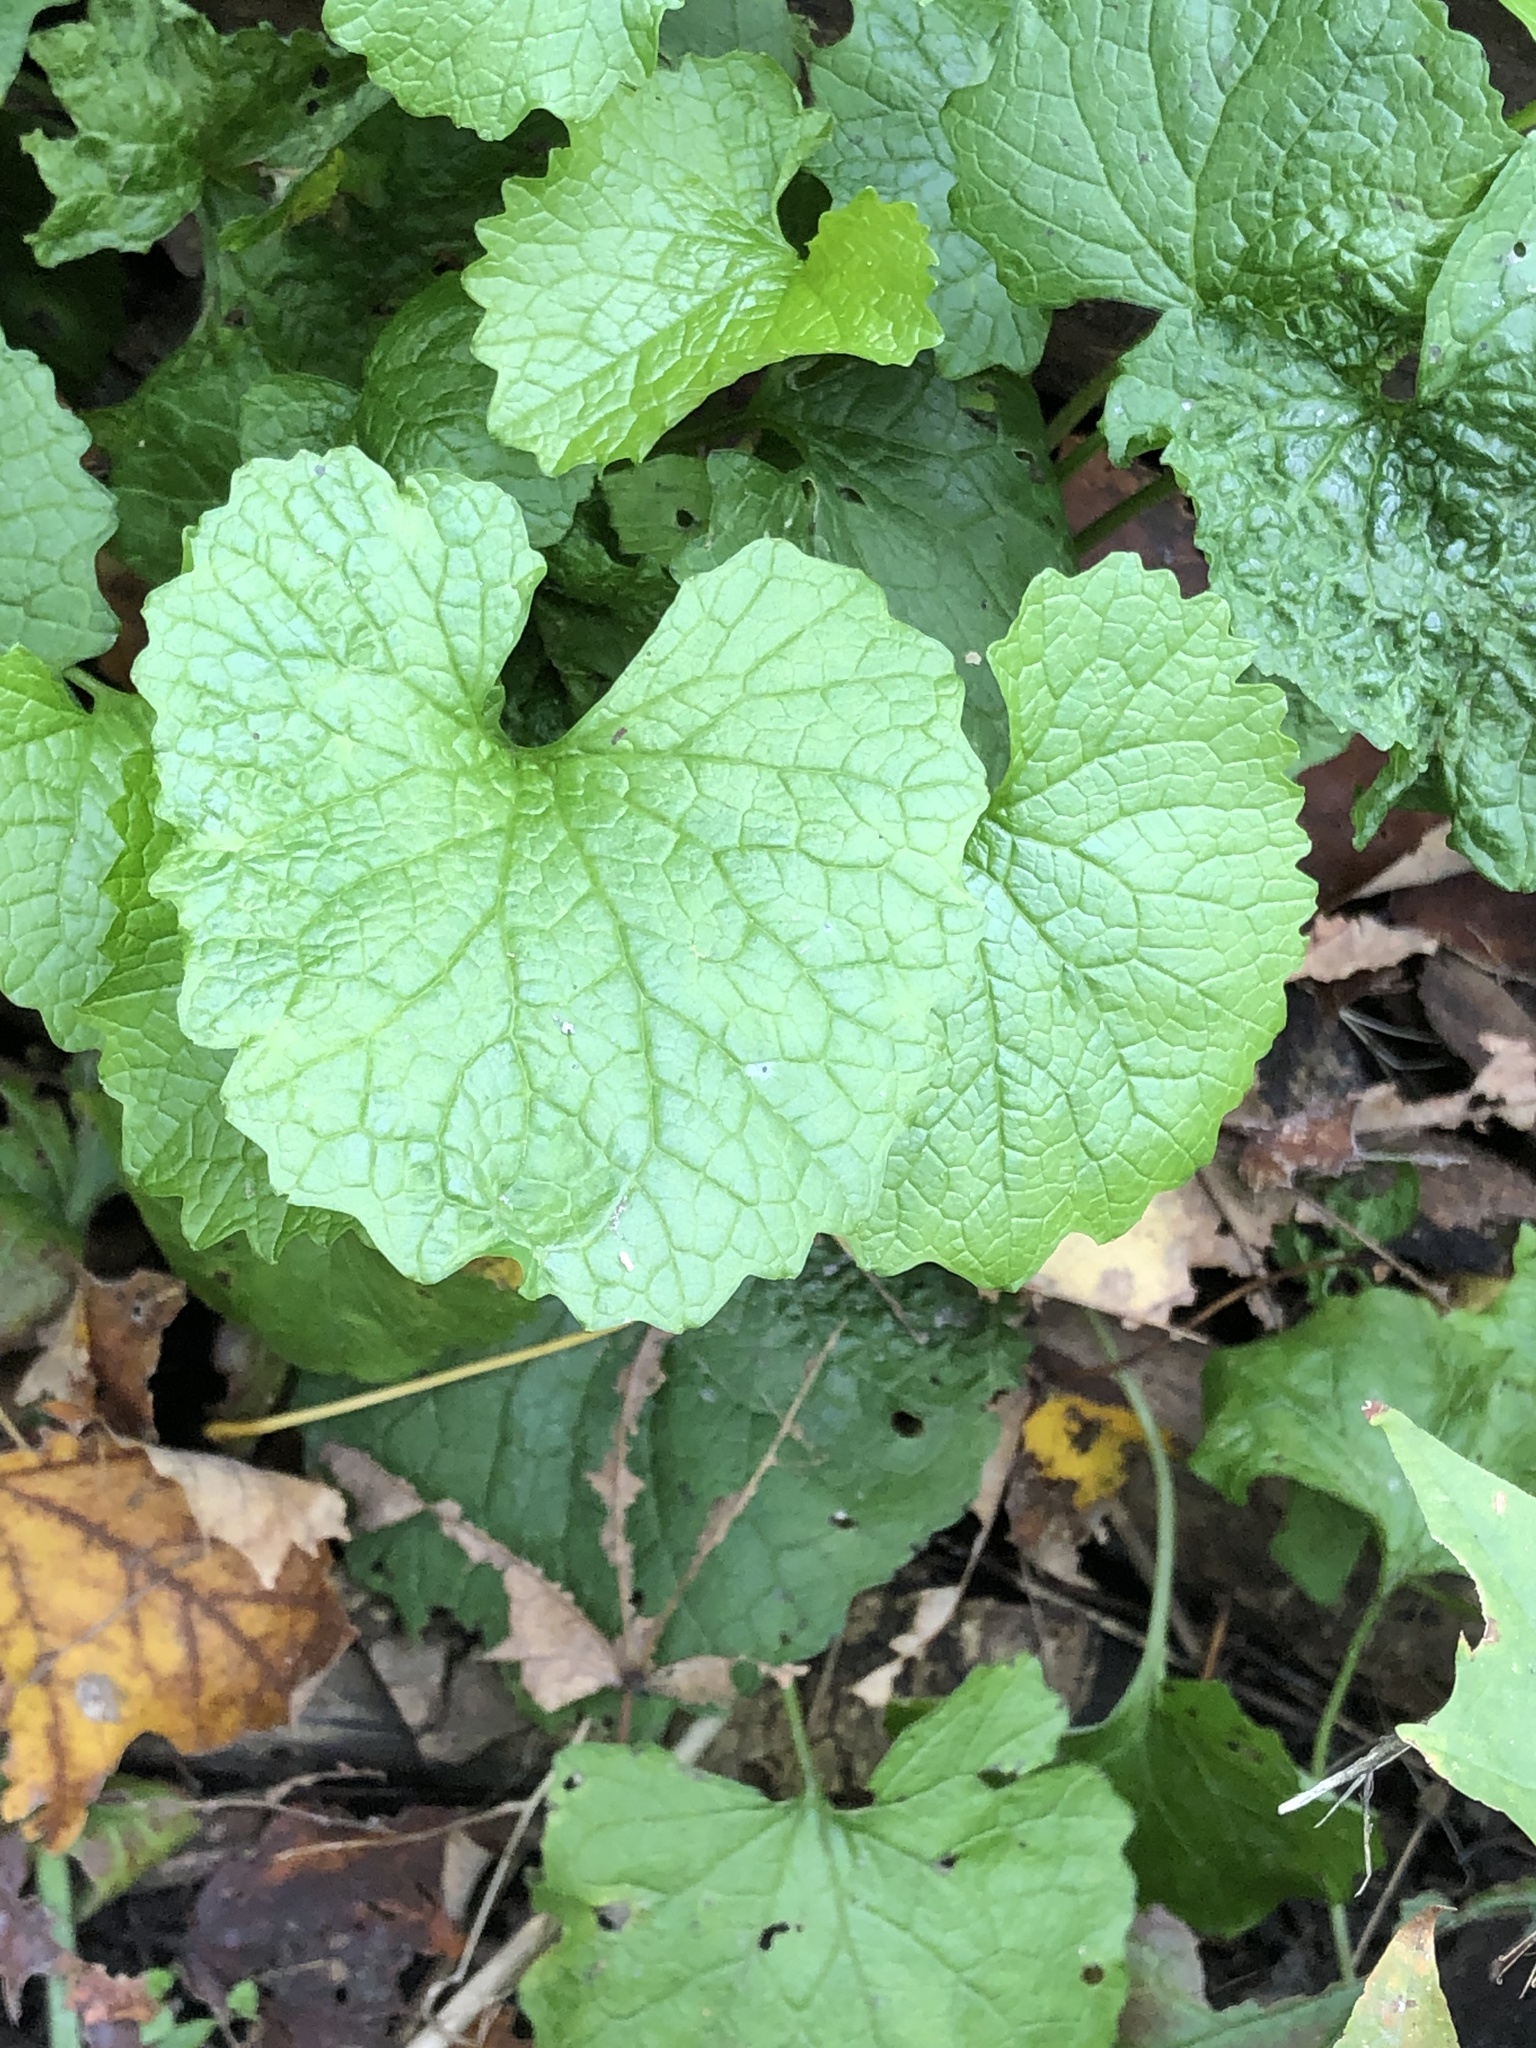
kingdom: Plantae
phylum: Tracheophyta
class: Magnoliopsida
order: Brassicales
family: Brassicaceae
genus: Alliaria
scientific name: Alliaria petiolata
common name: Garlic mustard
